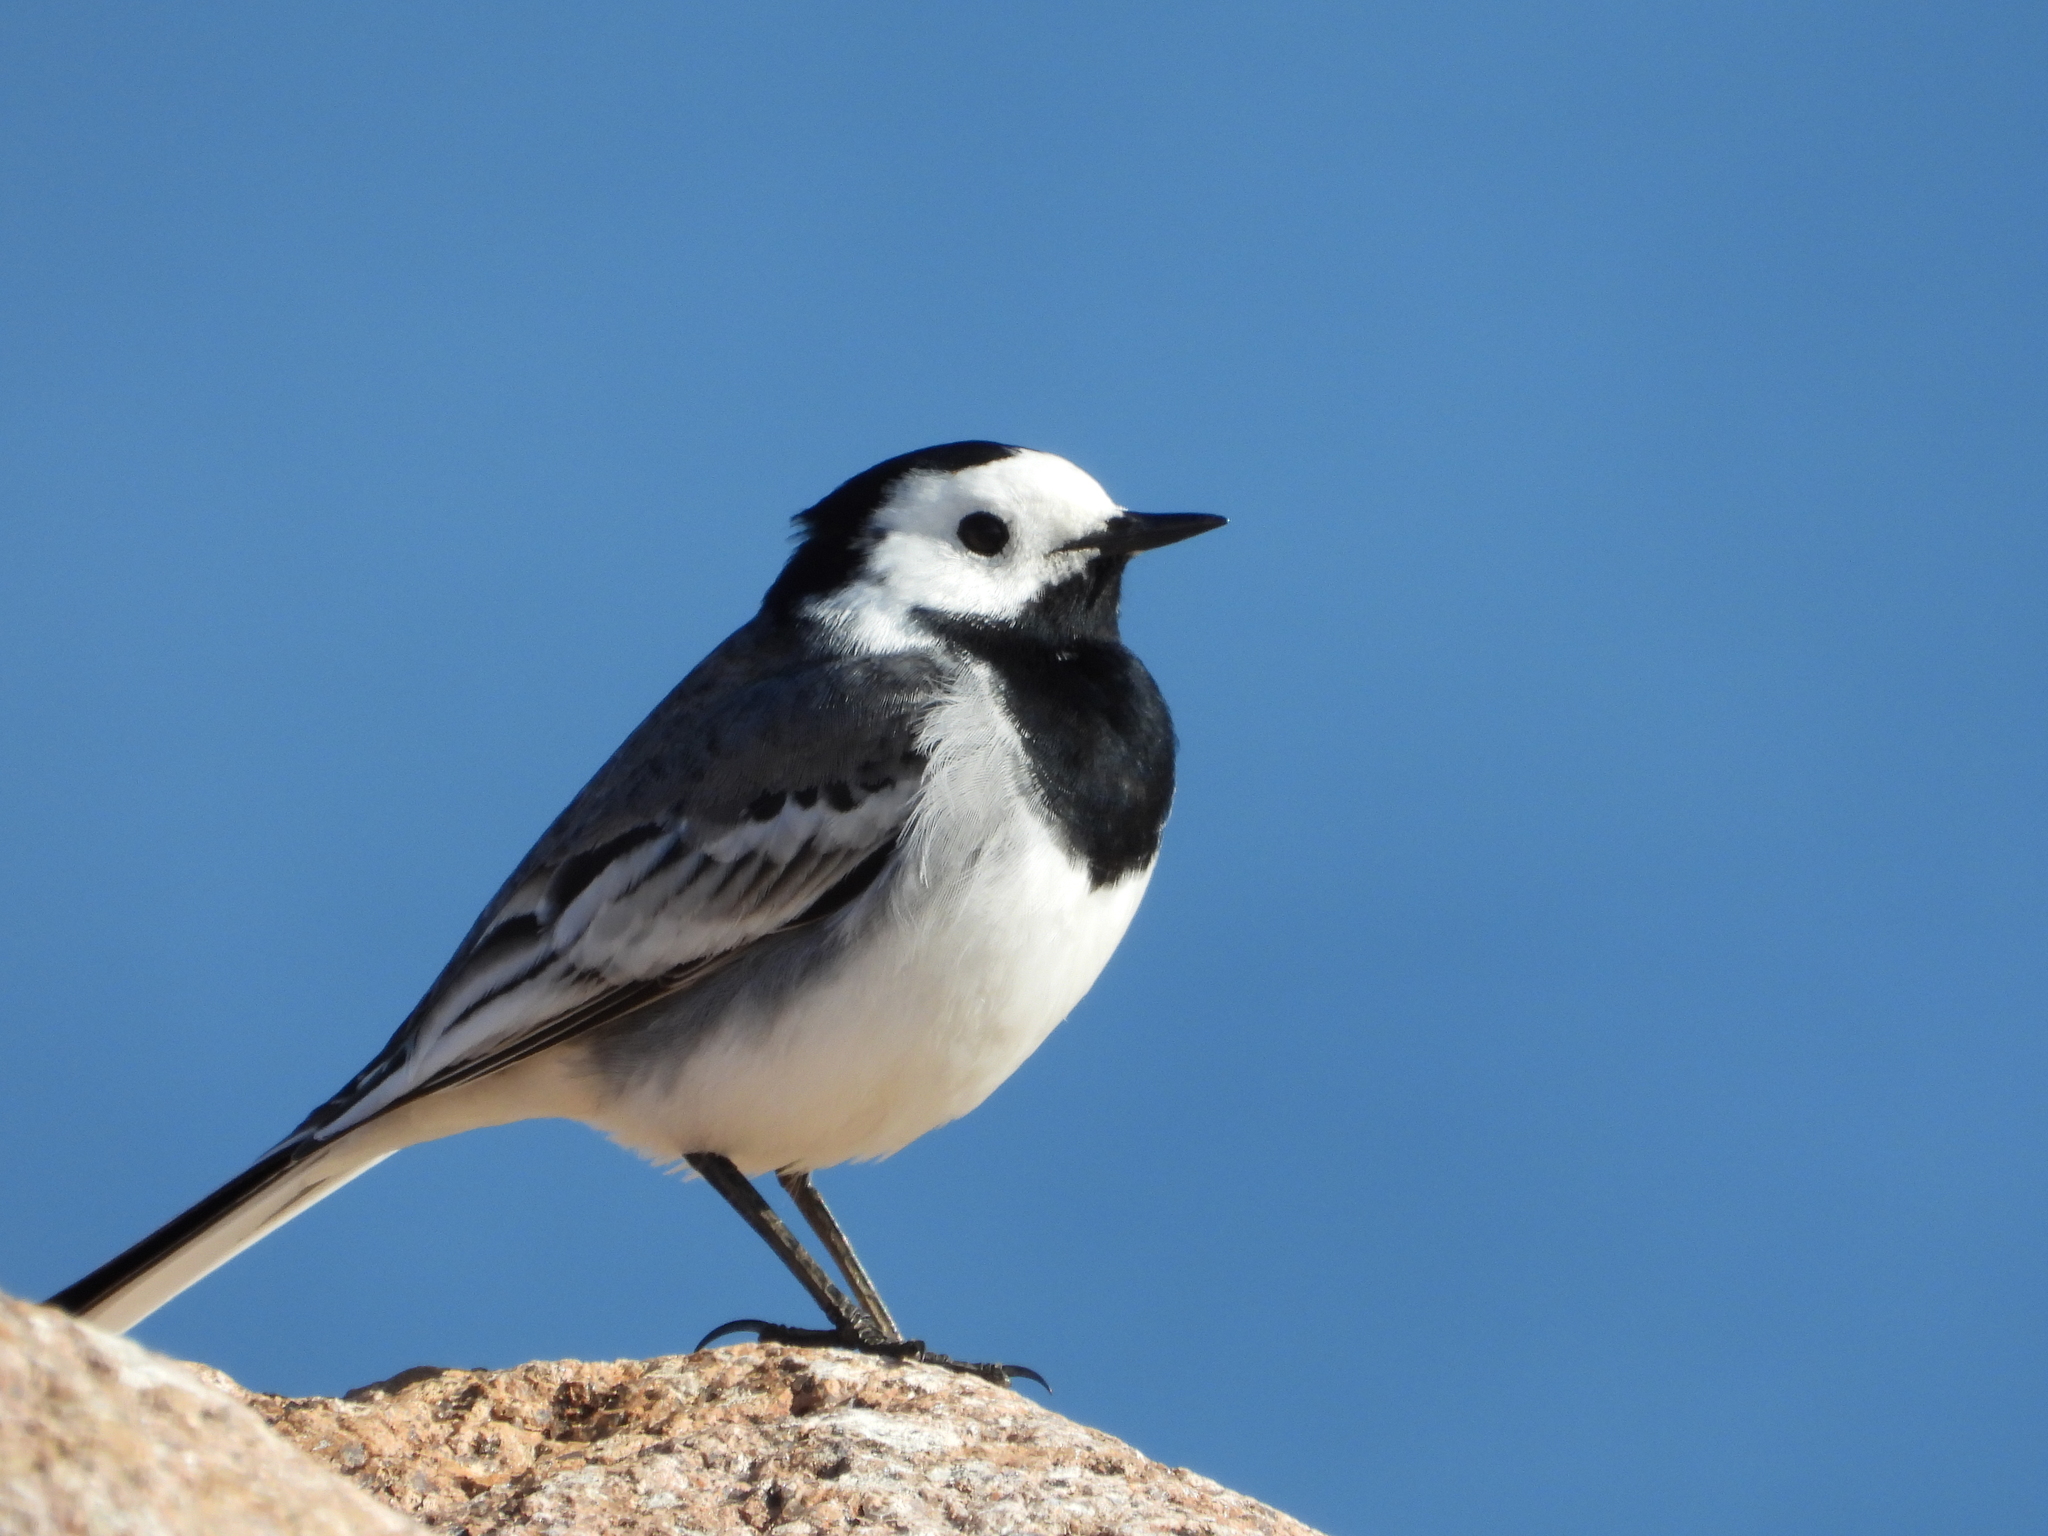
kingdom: Animalia
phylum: Chordata
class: Aves
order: Passeriformes
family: Motacillidae
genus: Motacilla
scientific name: Motacilla alba
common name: White wagtail
